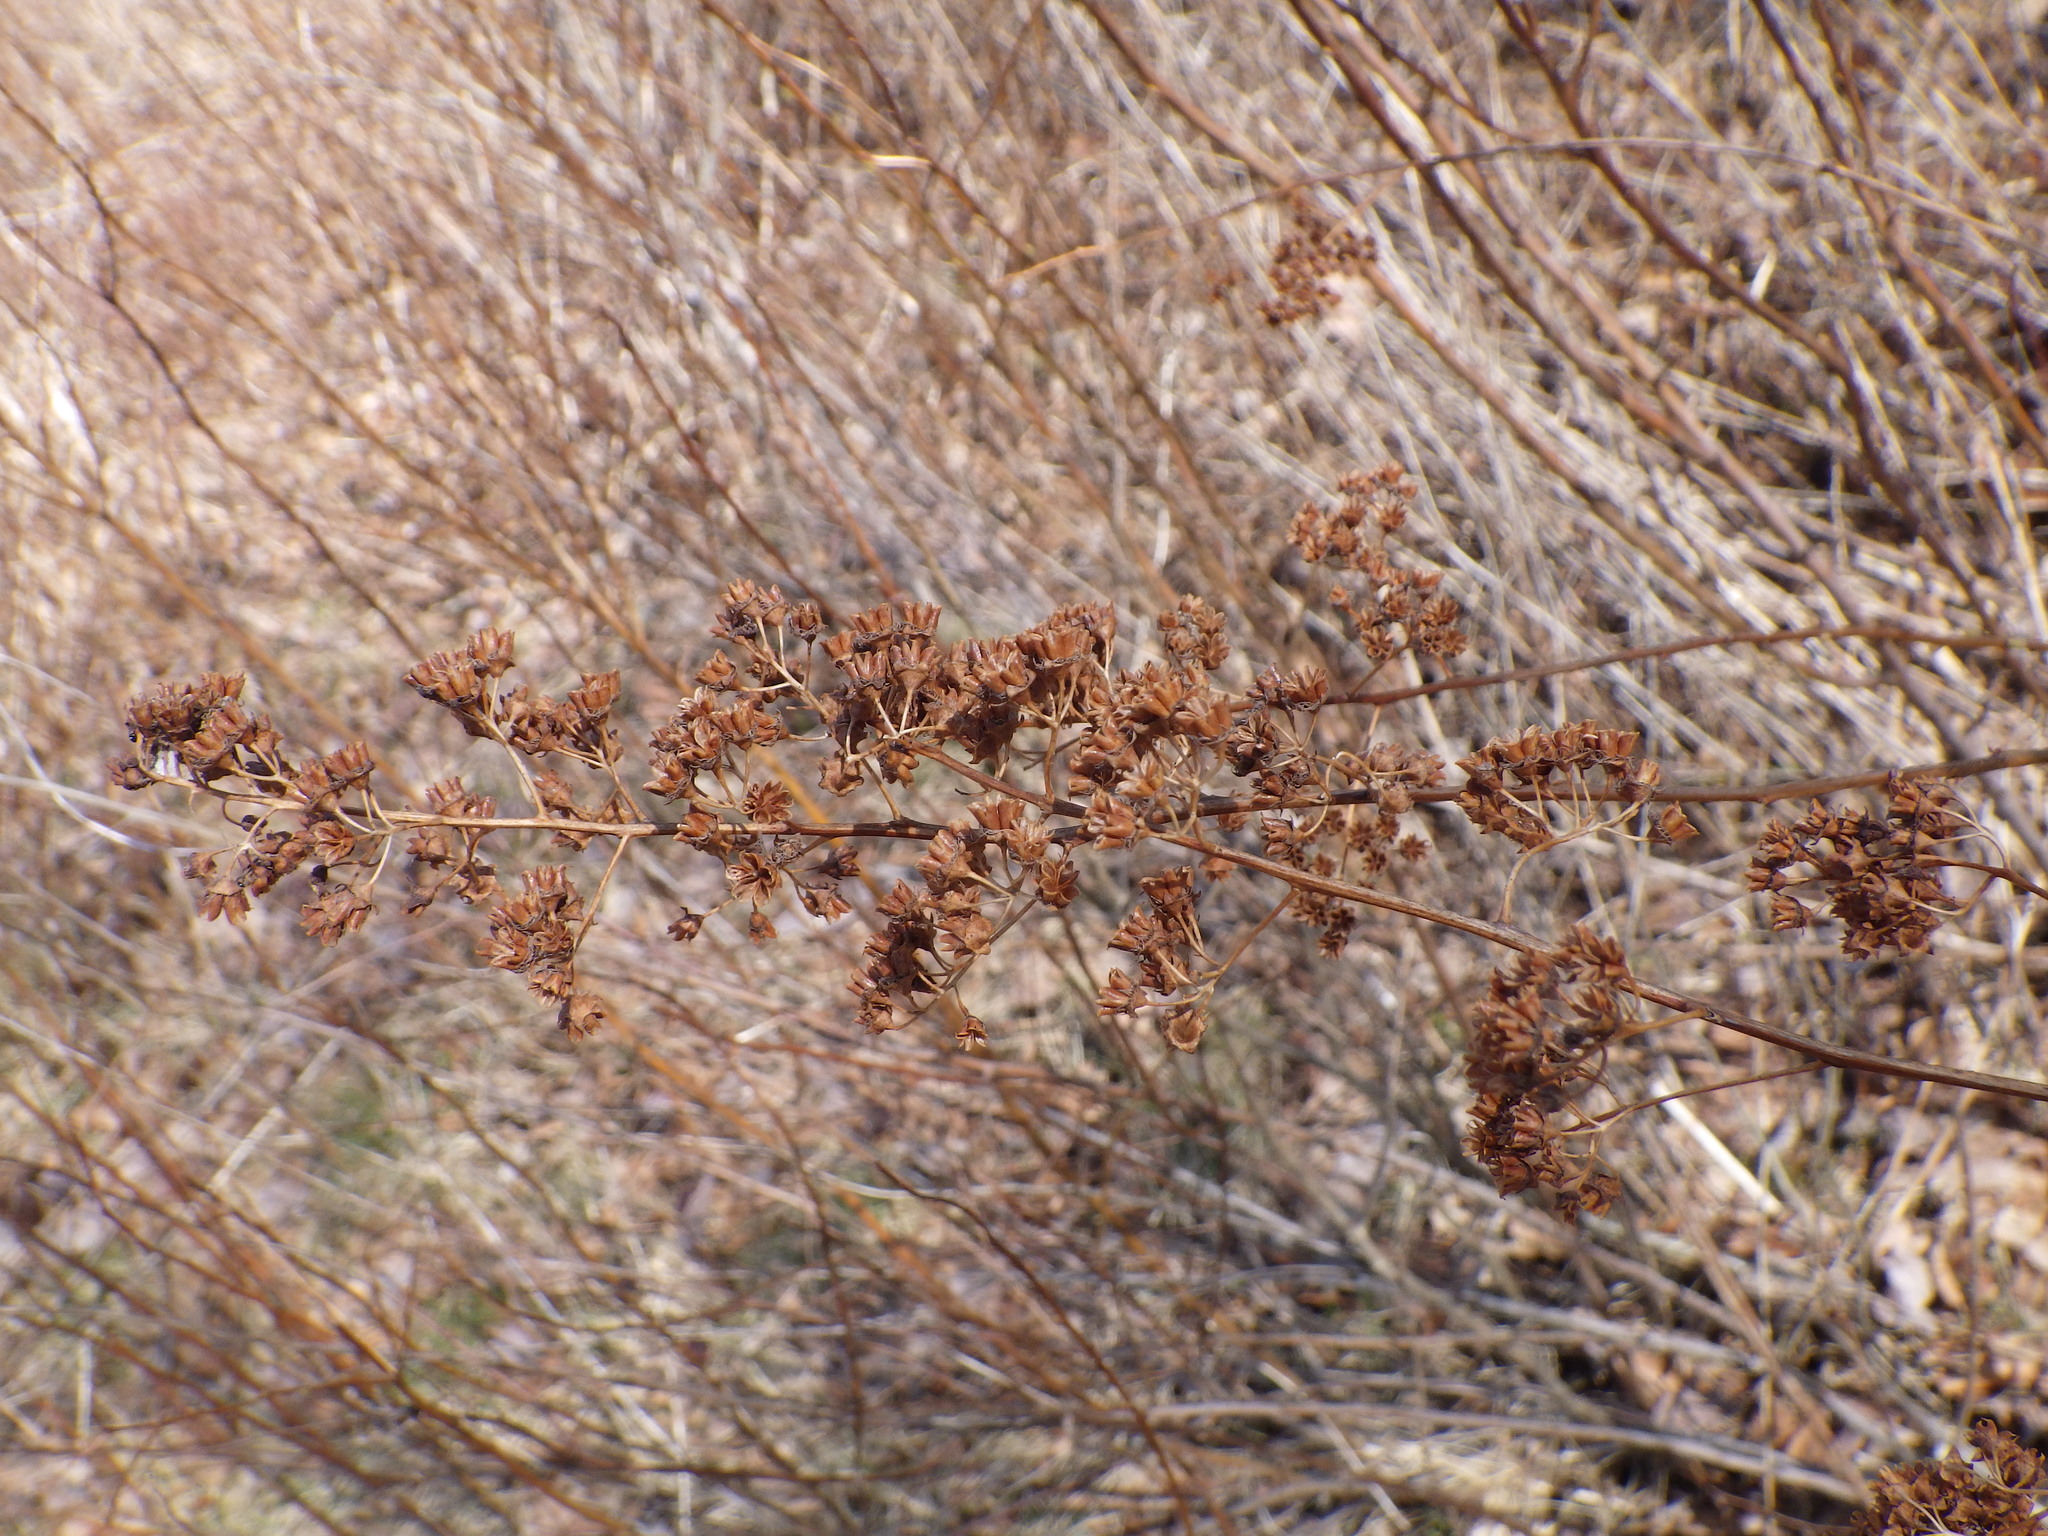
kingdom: Plantae
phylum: Tracheophyta
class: Magnoliopsida
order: Rosales
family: Rosaceae
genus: Spiraea
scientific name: Spiraea alba
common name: Pale bridewort
